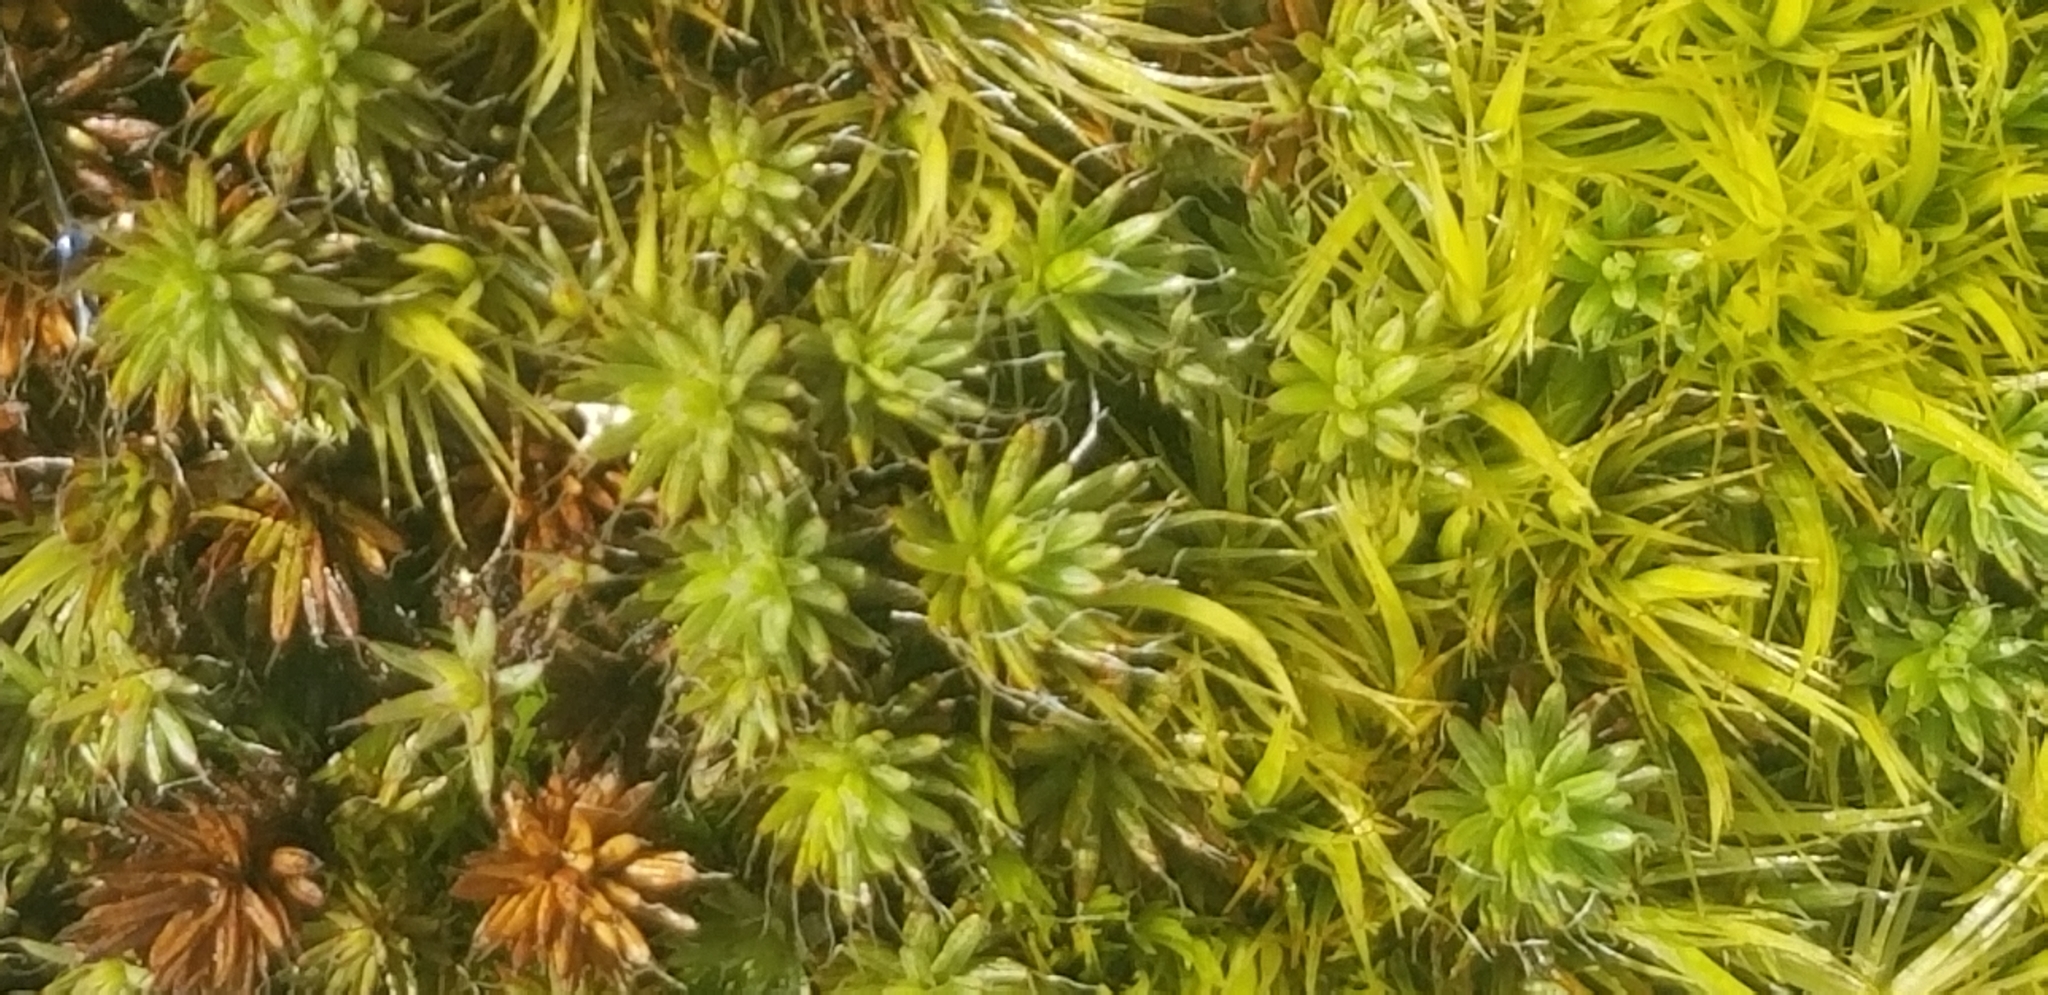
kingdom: Plantae
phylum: Bryophyta
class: Polytrichopsida
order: Polytrichales
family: Polytrichaceae
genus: Polytrichum
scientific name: Polytrichum piliferum
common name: Bristly haircap
